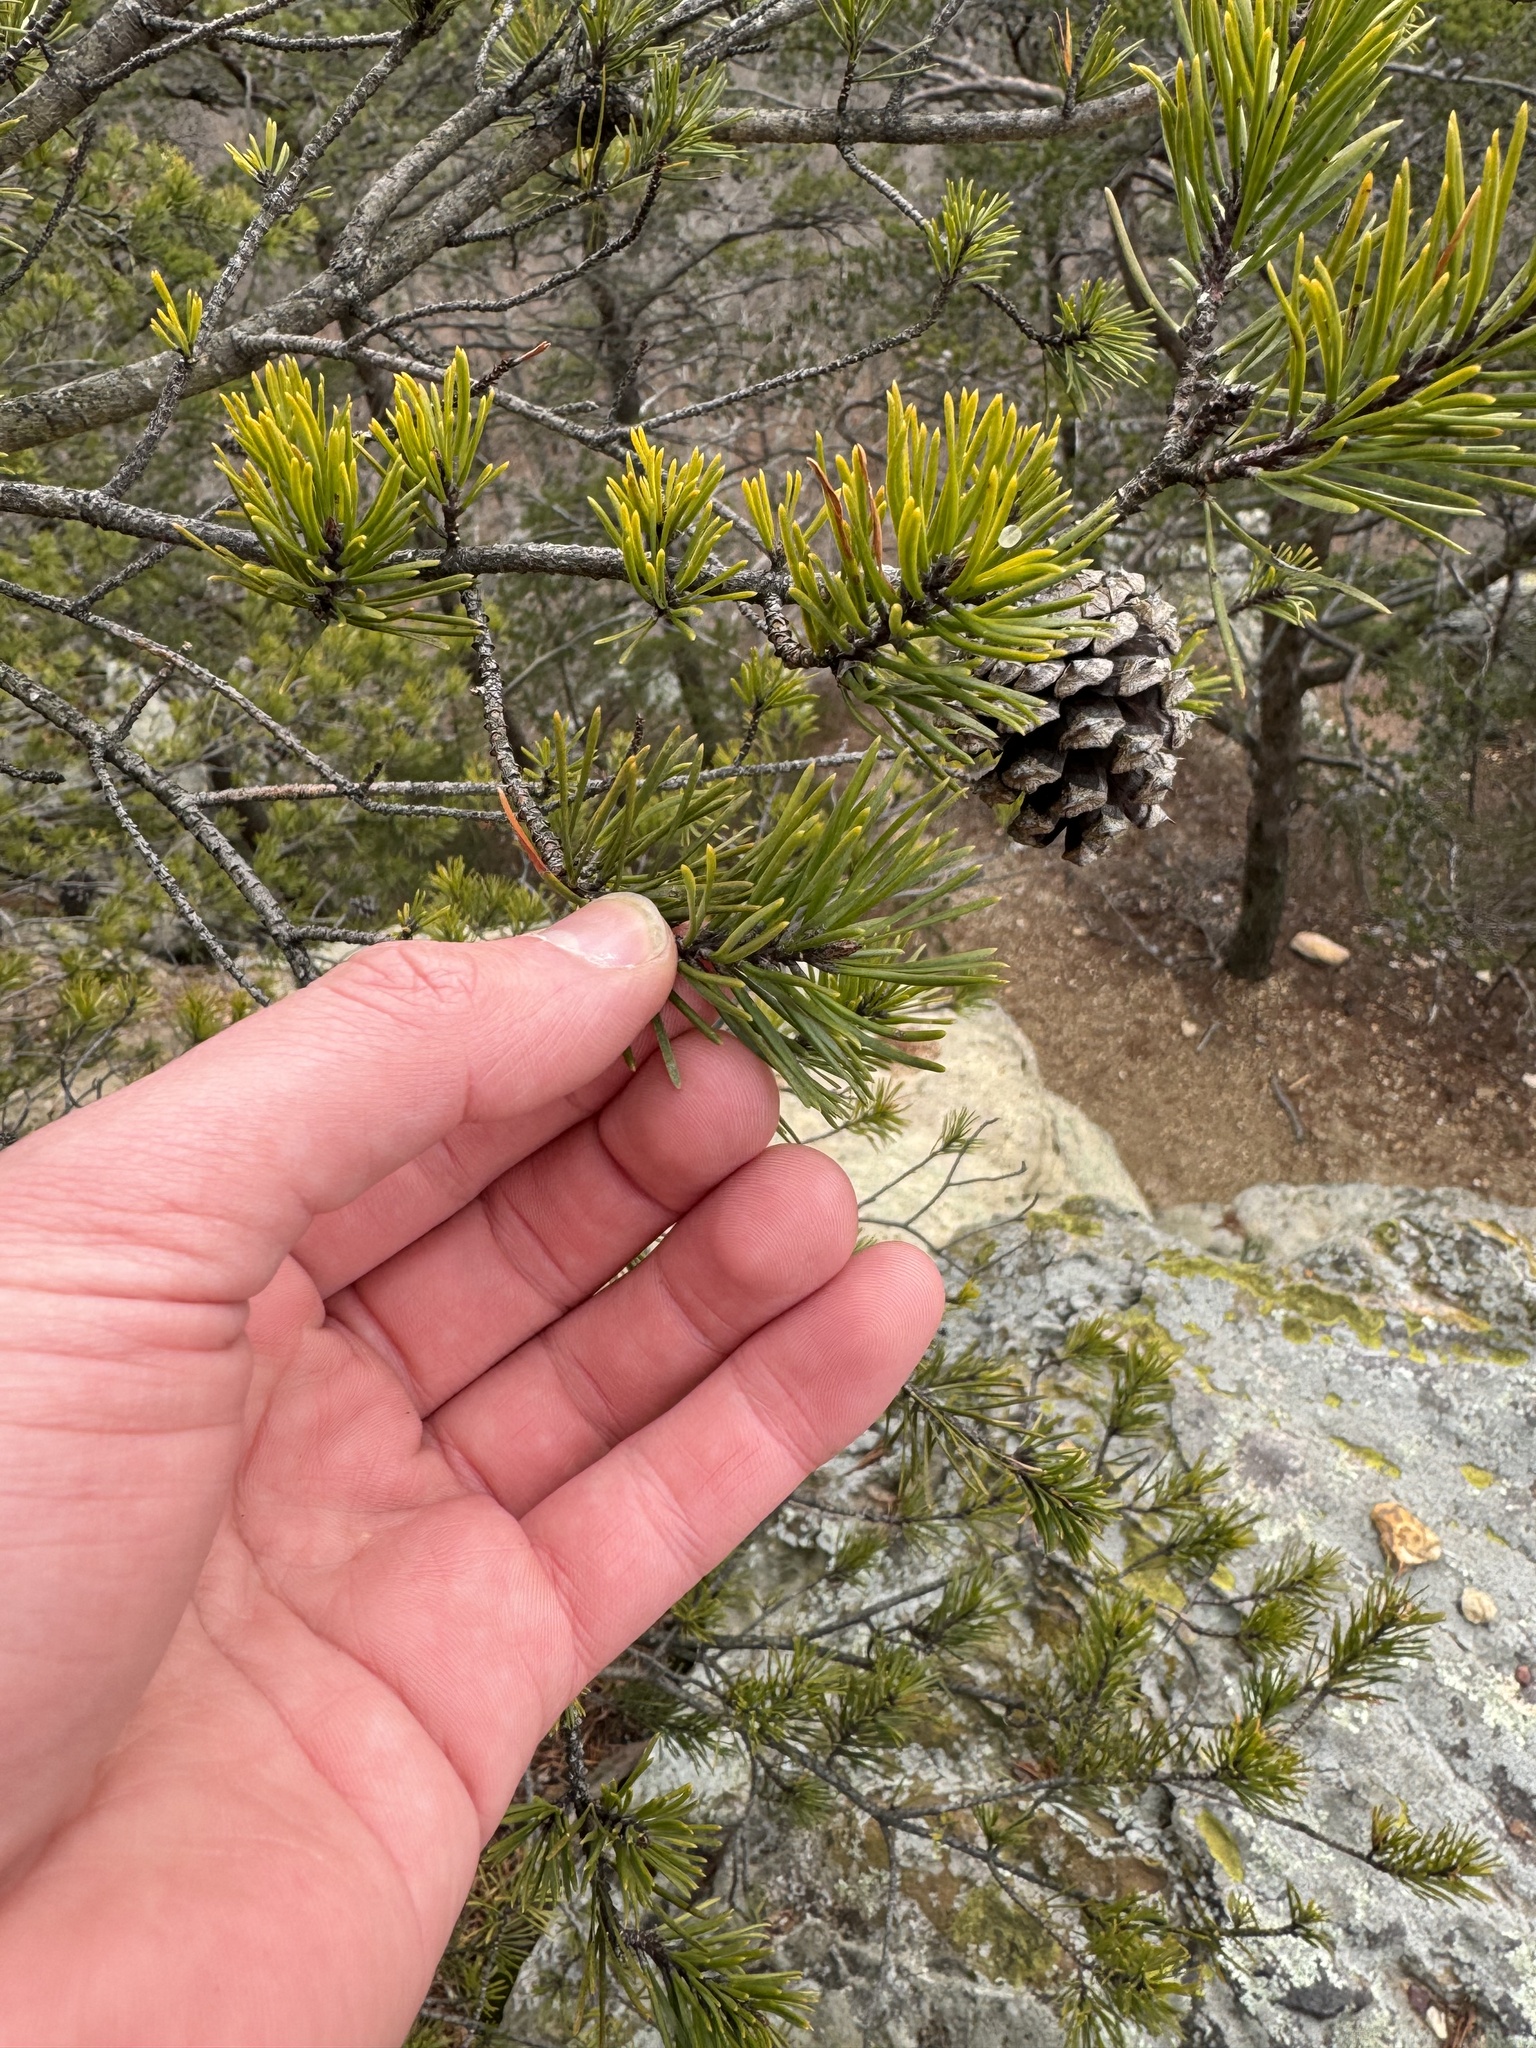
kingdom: Plantae
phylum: Tracheophyta
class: Pinopsida
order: Pinales
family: Pinaceae
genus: Pinus
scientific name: Pinus virginiana
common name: Scrub pine
